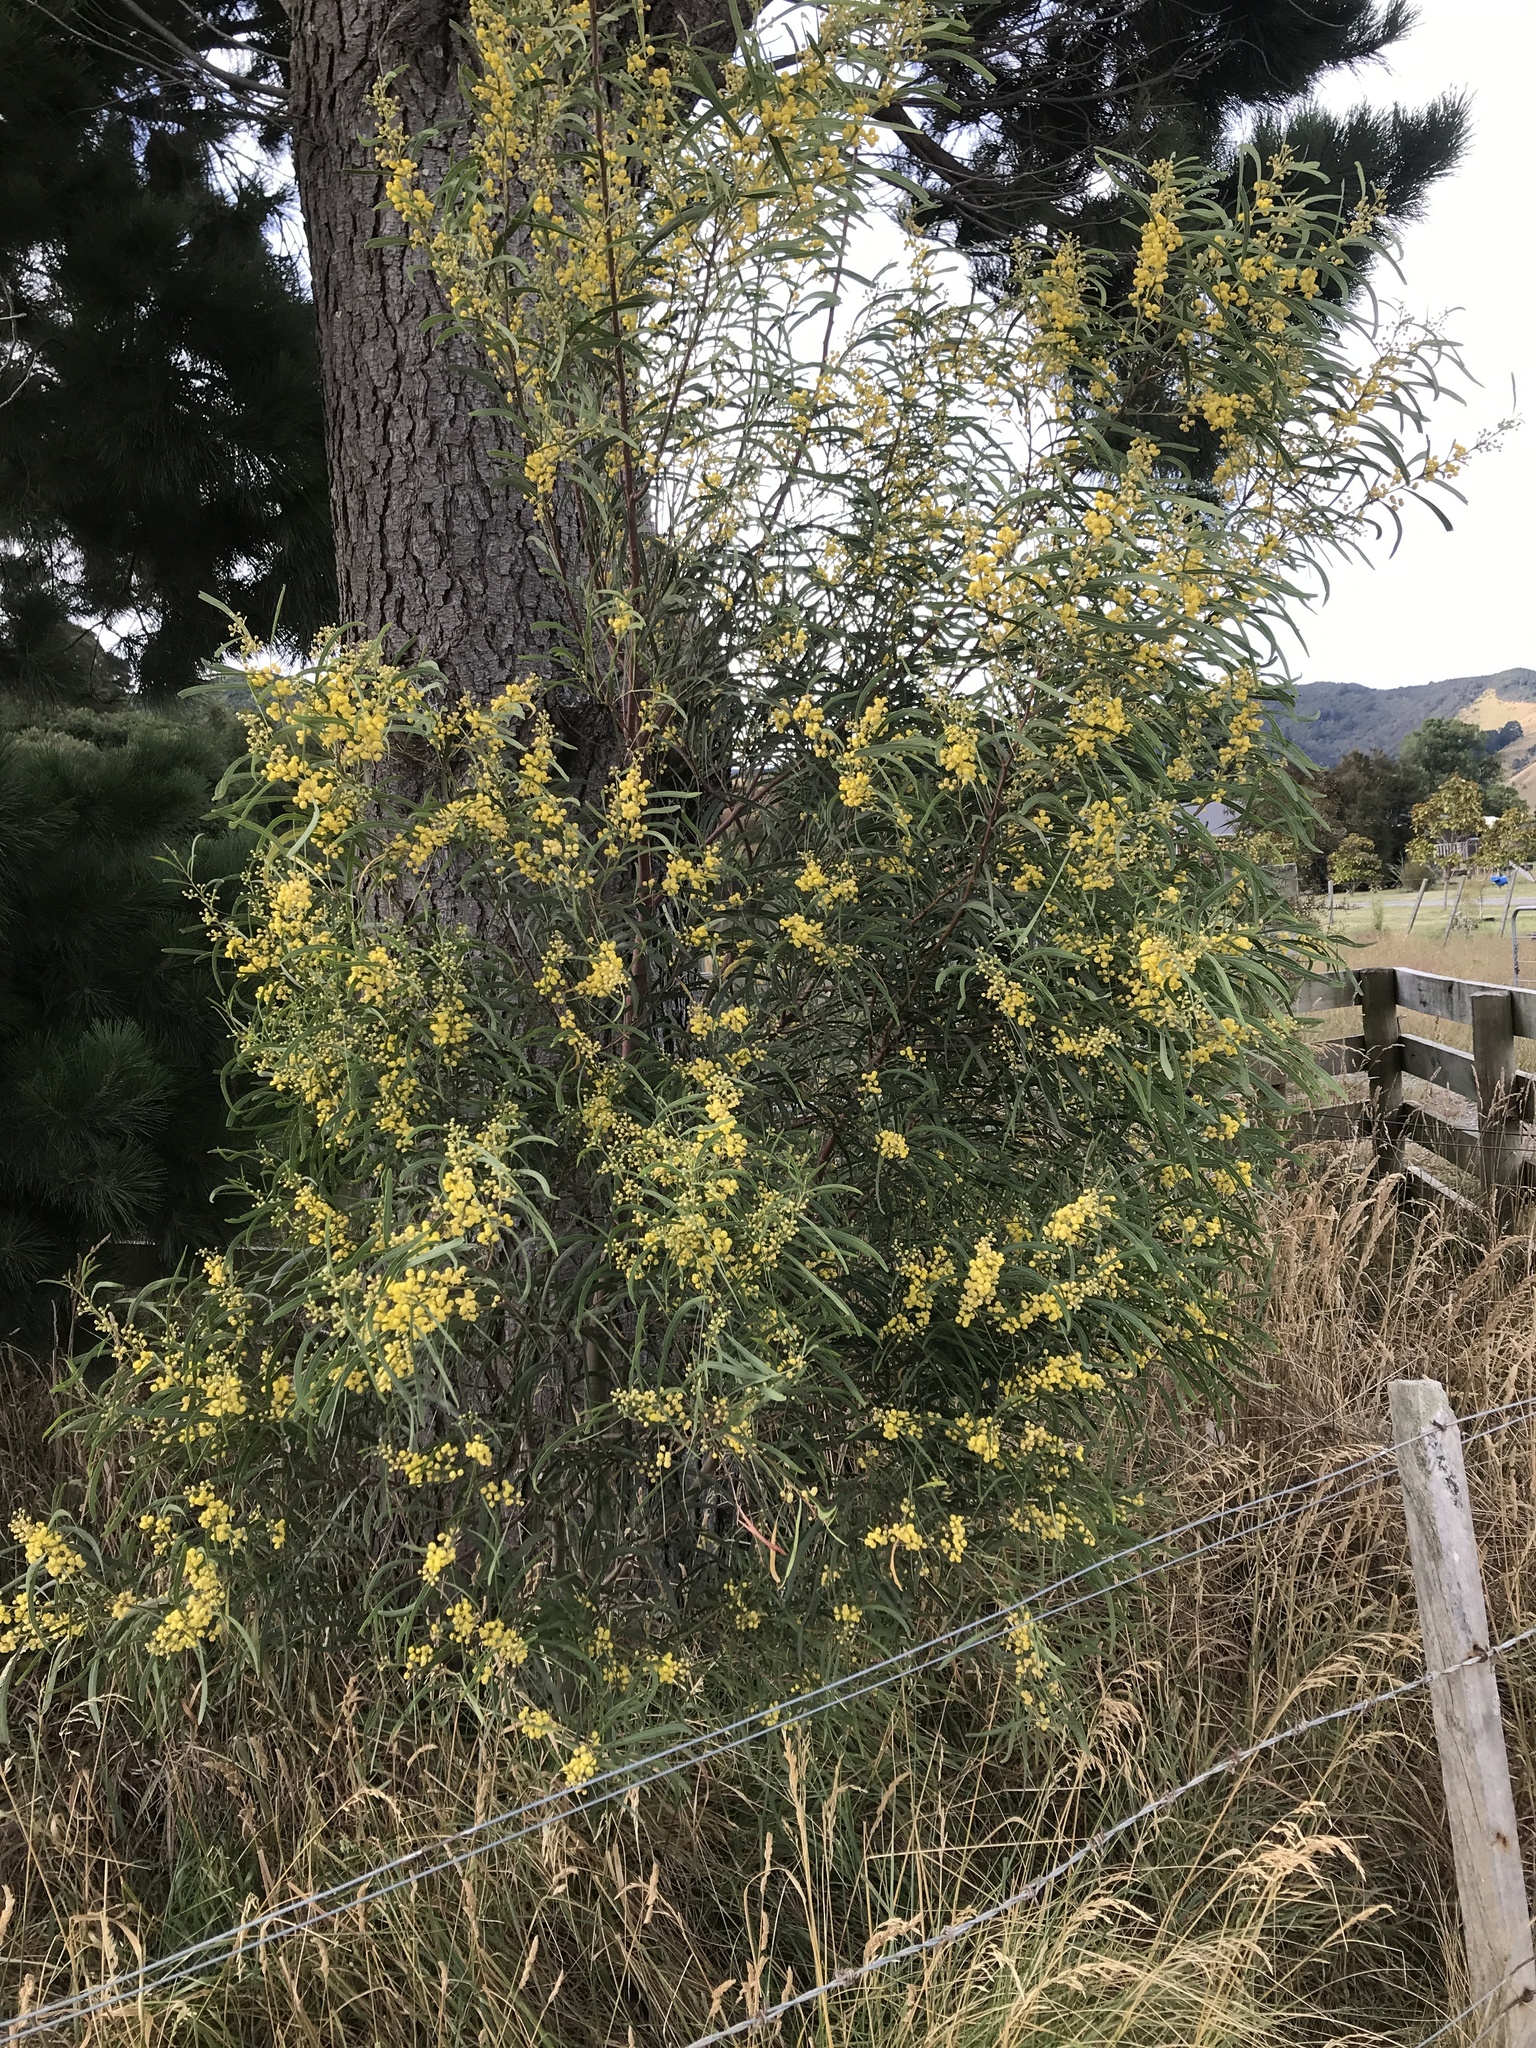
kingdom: Plantae
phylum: Tracheophyta
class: Magnoliopsida
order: Fabales
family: Fabaceae
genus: Acacia
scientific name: Acacia pycnantha
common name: Golden wattle
